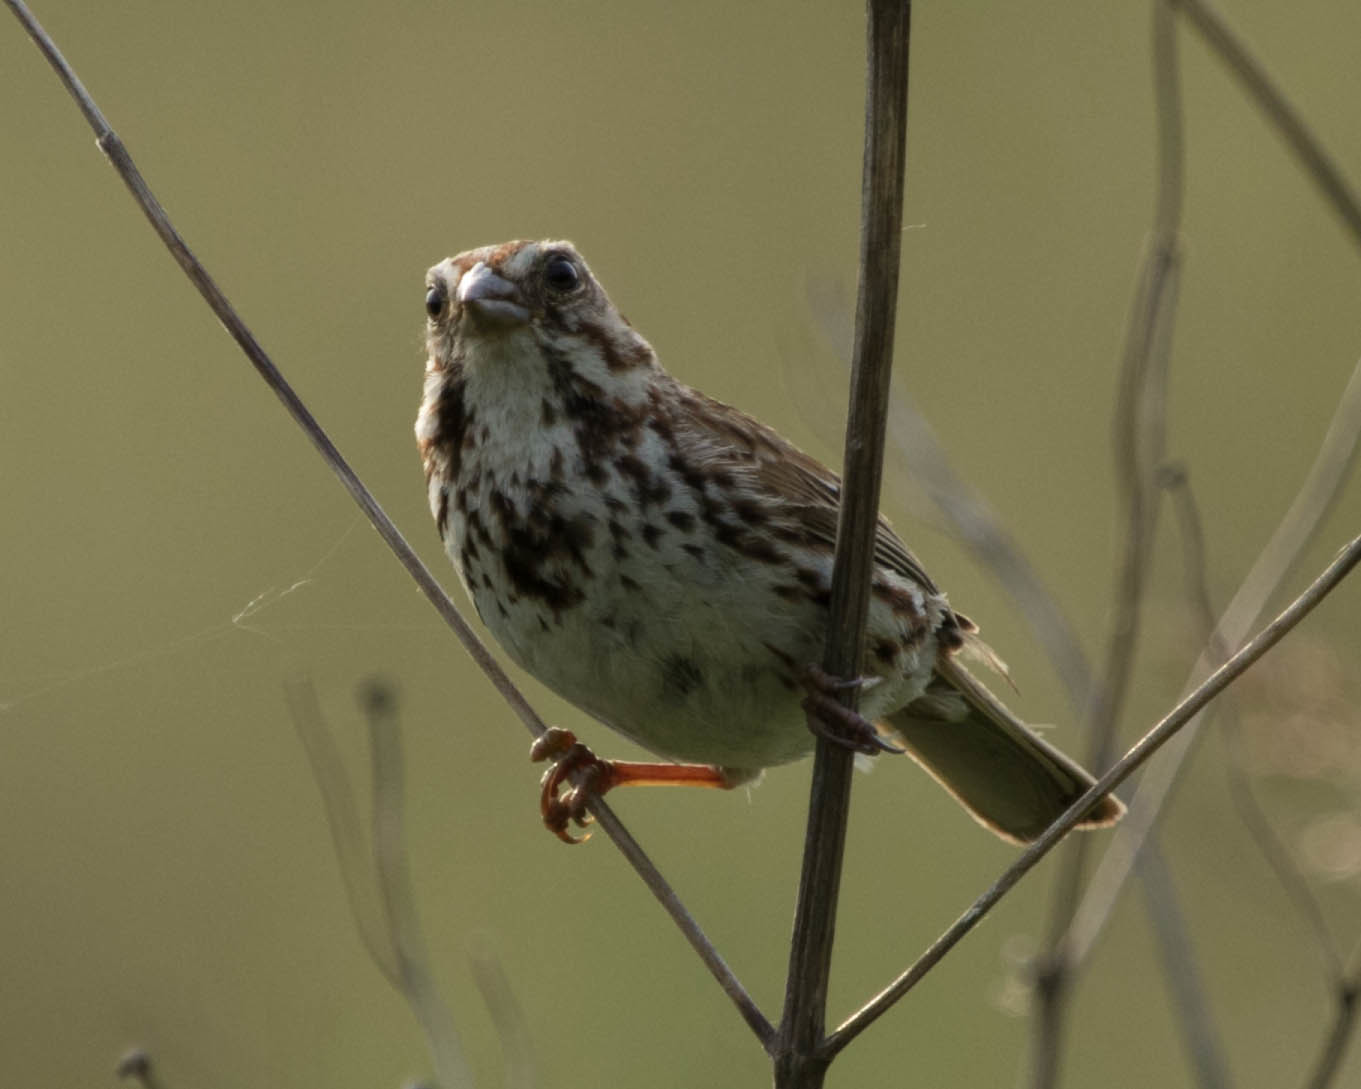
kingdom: Animalia
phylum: Chordata
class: Aves
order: Passeriformes
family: Passerellidae
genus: Melospiza
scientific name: Melospiza melodia
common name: Song sparrow
